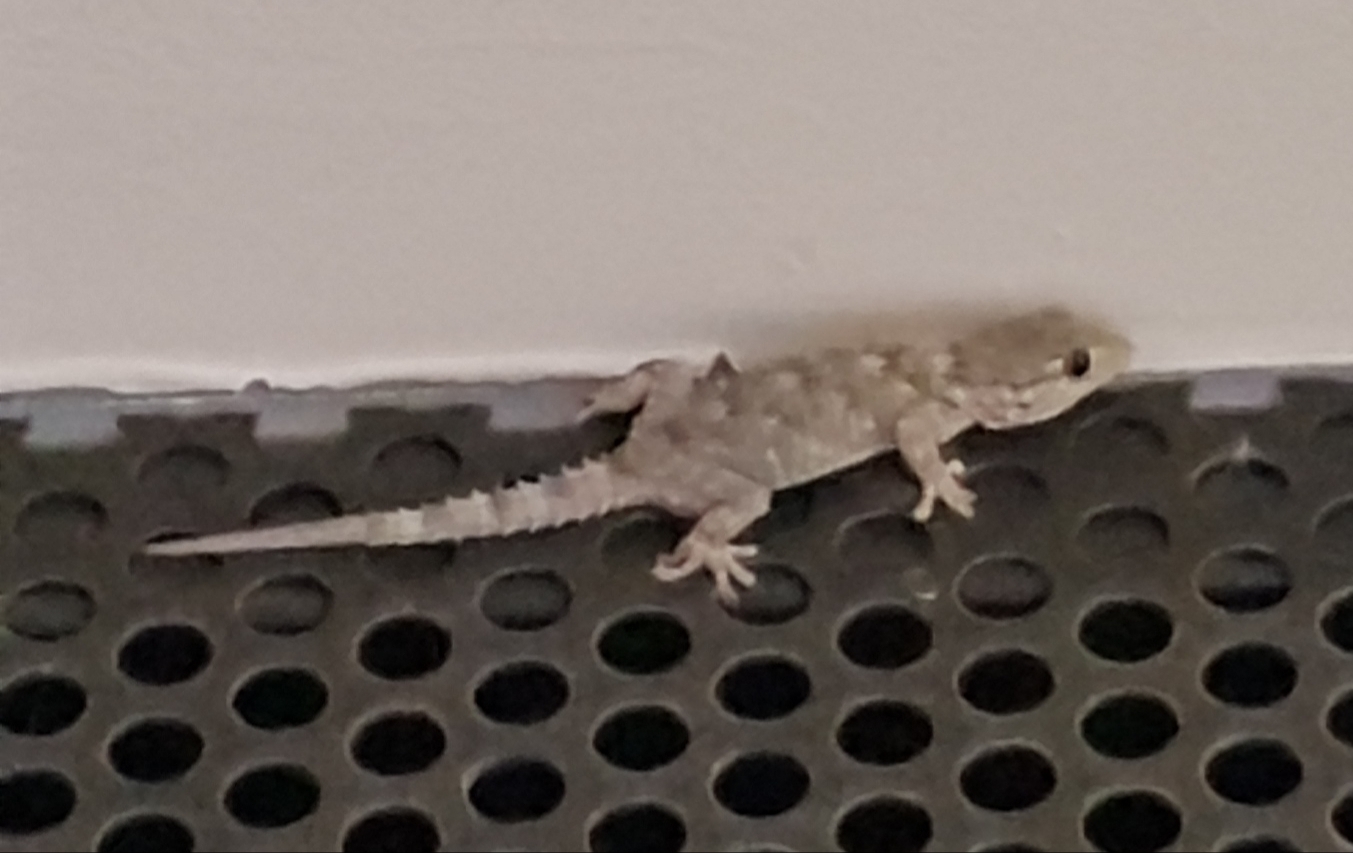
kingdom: Animalia
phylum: Chordata
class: Squamata
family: Phyllodactylidae
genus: Tarentola
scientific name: Tarentola mauritanica
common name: Moorish gecko
